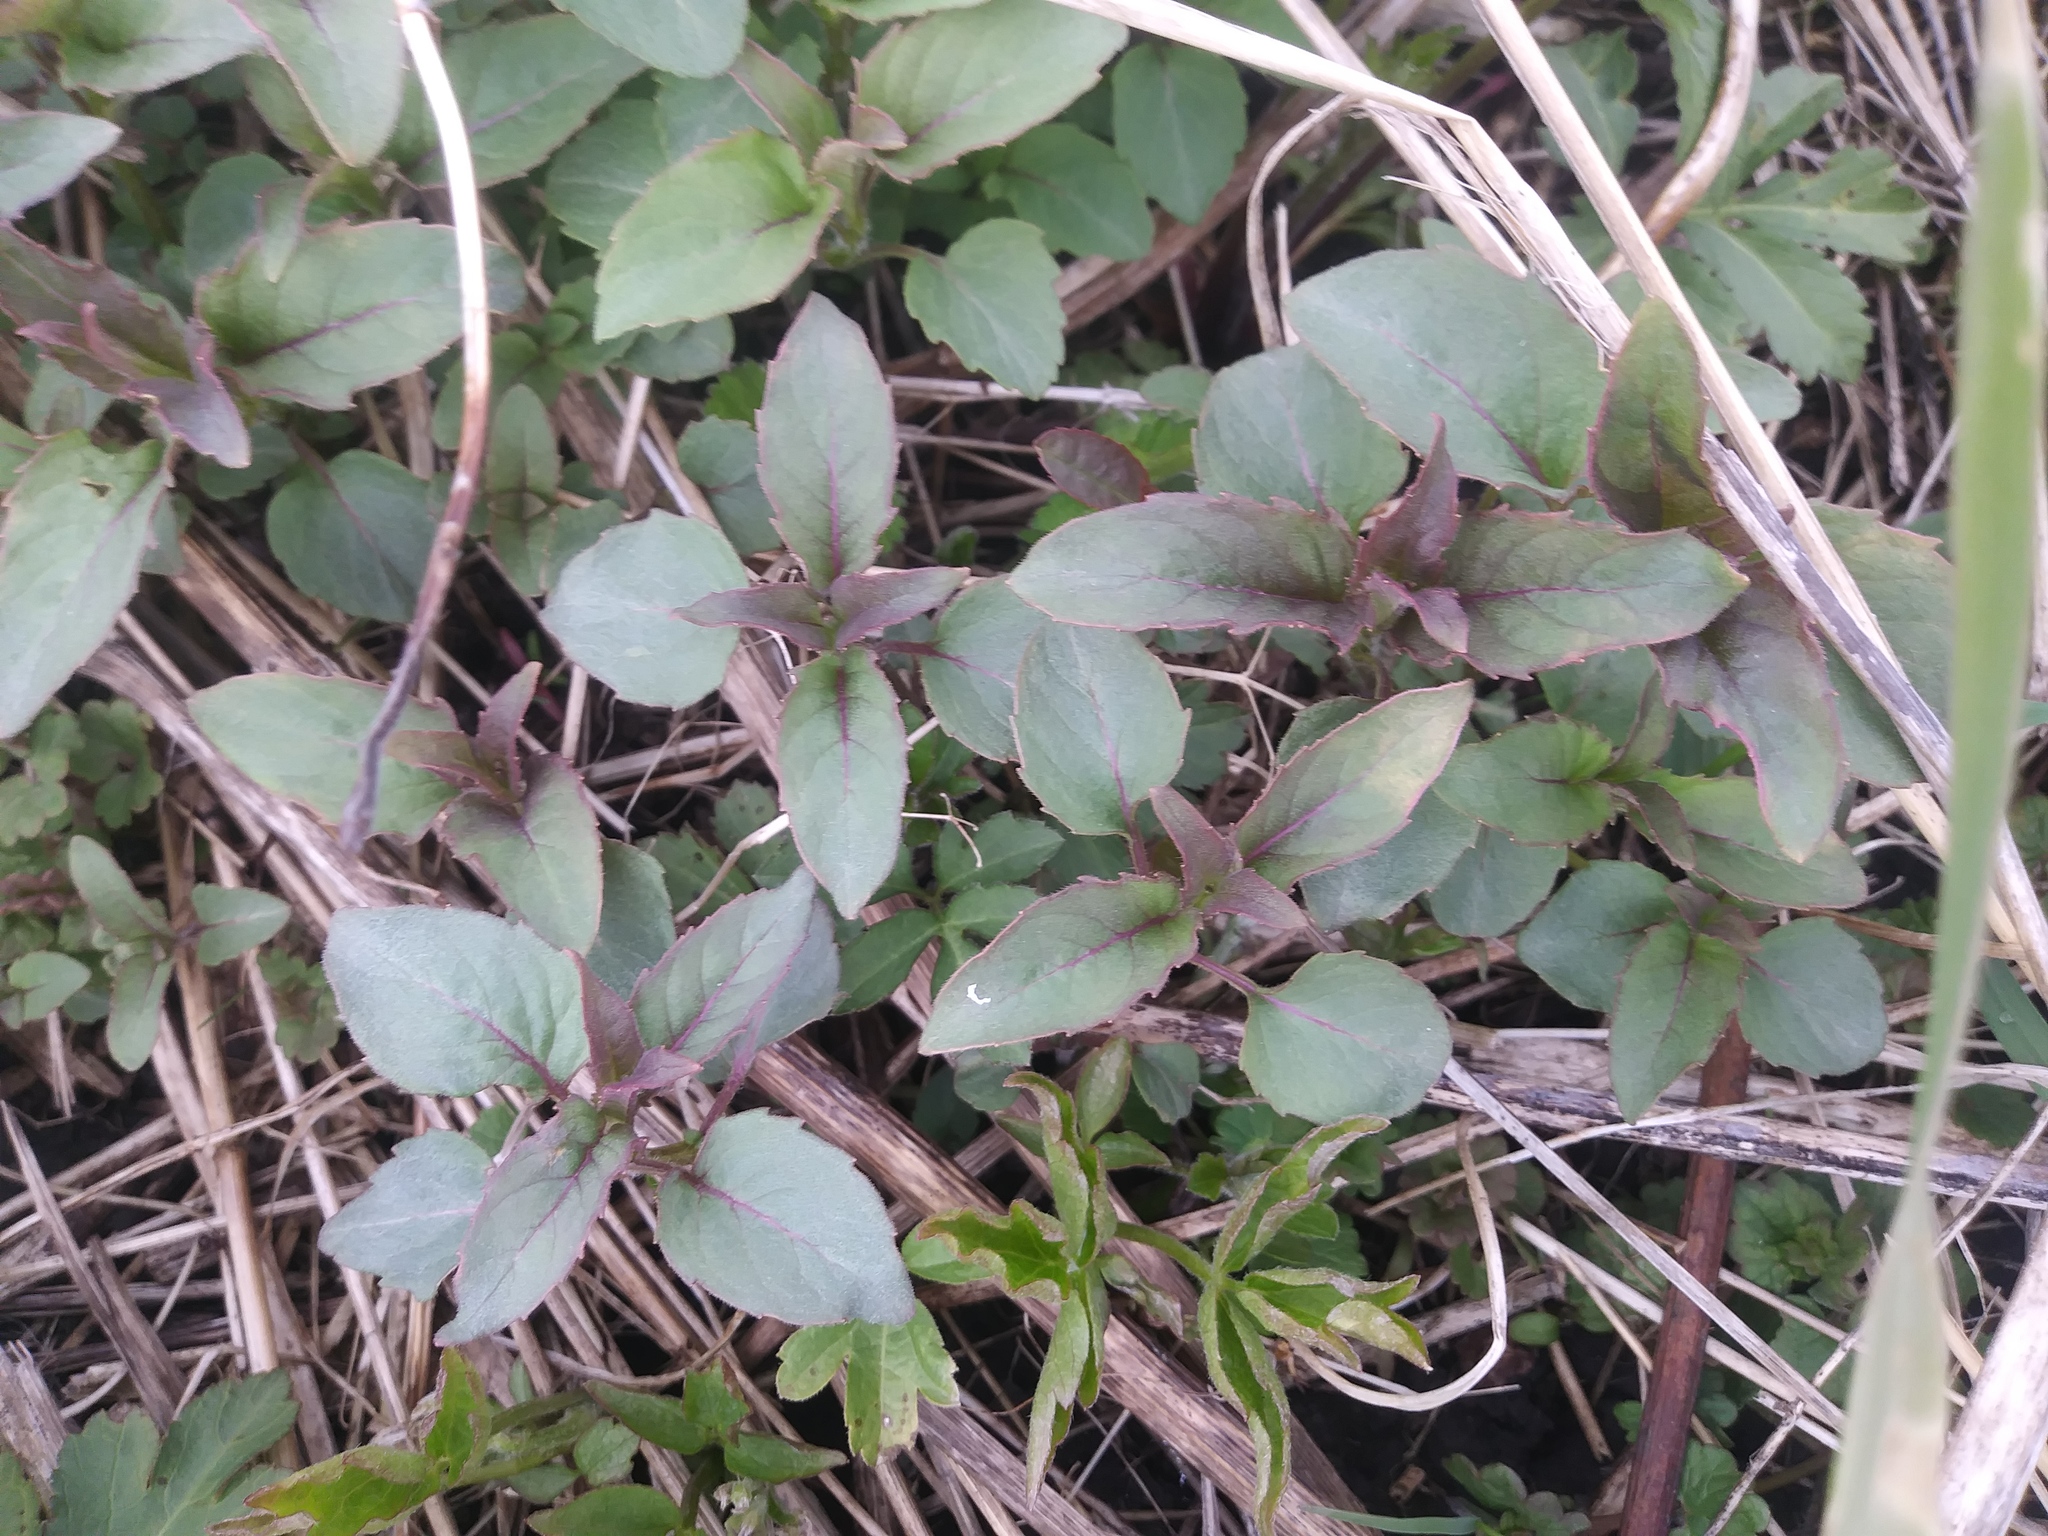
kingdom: Plantae
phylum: Tracheophyta
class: Magnoliopsida
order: Lamiales
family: Lamiaceae
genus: Monarda
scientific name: Monarda fistulosa
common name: Purple beebalm
